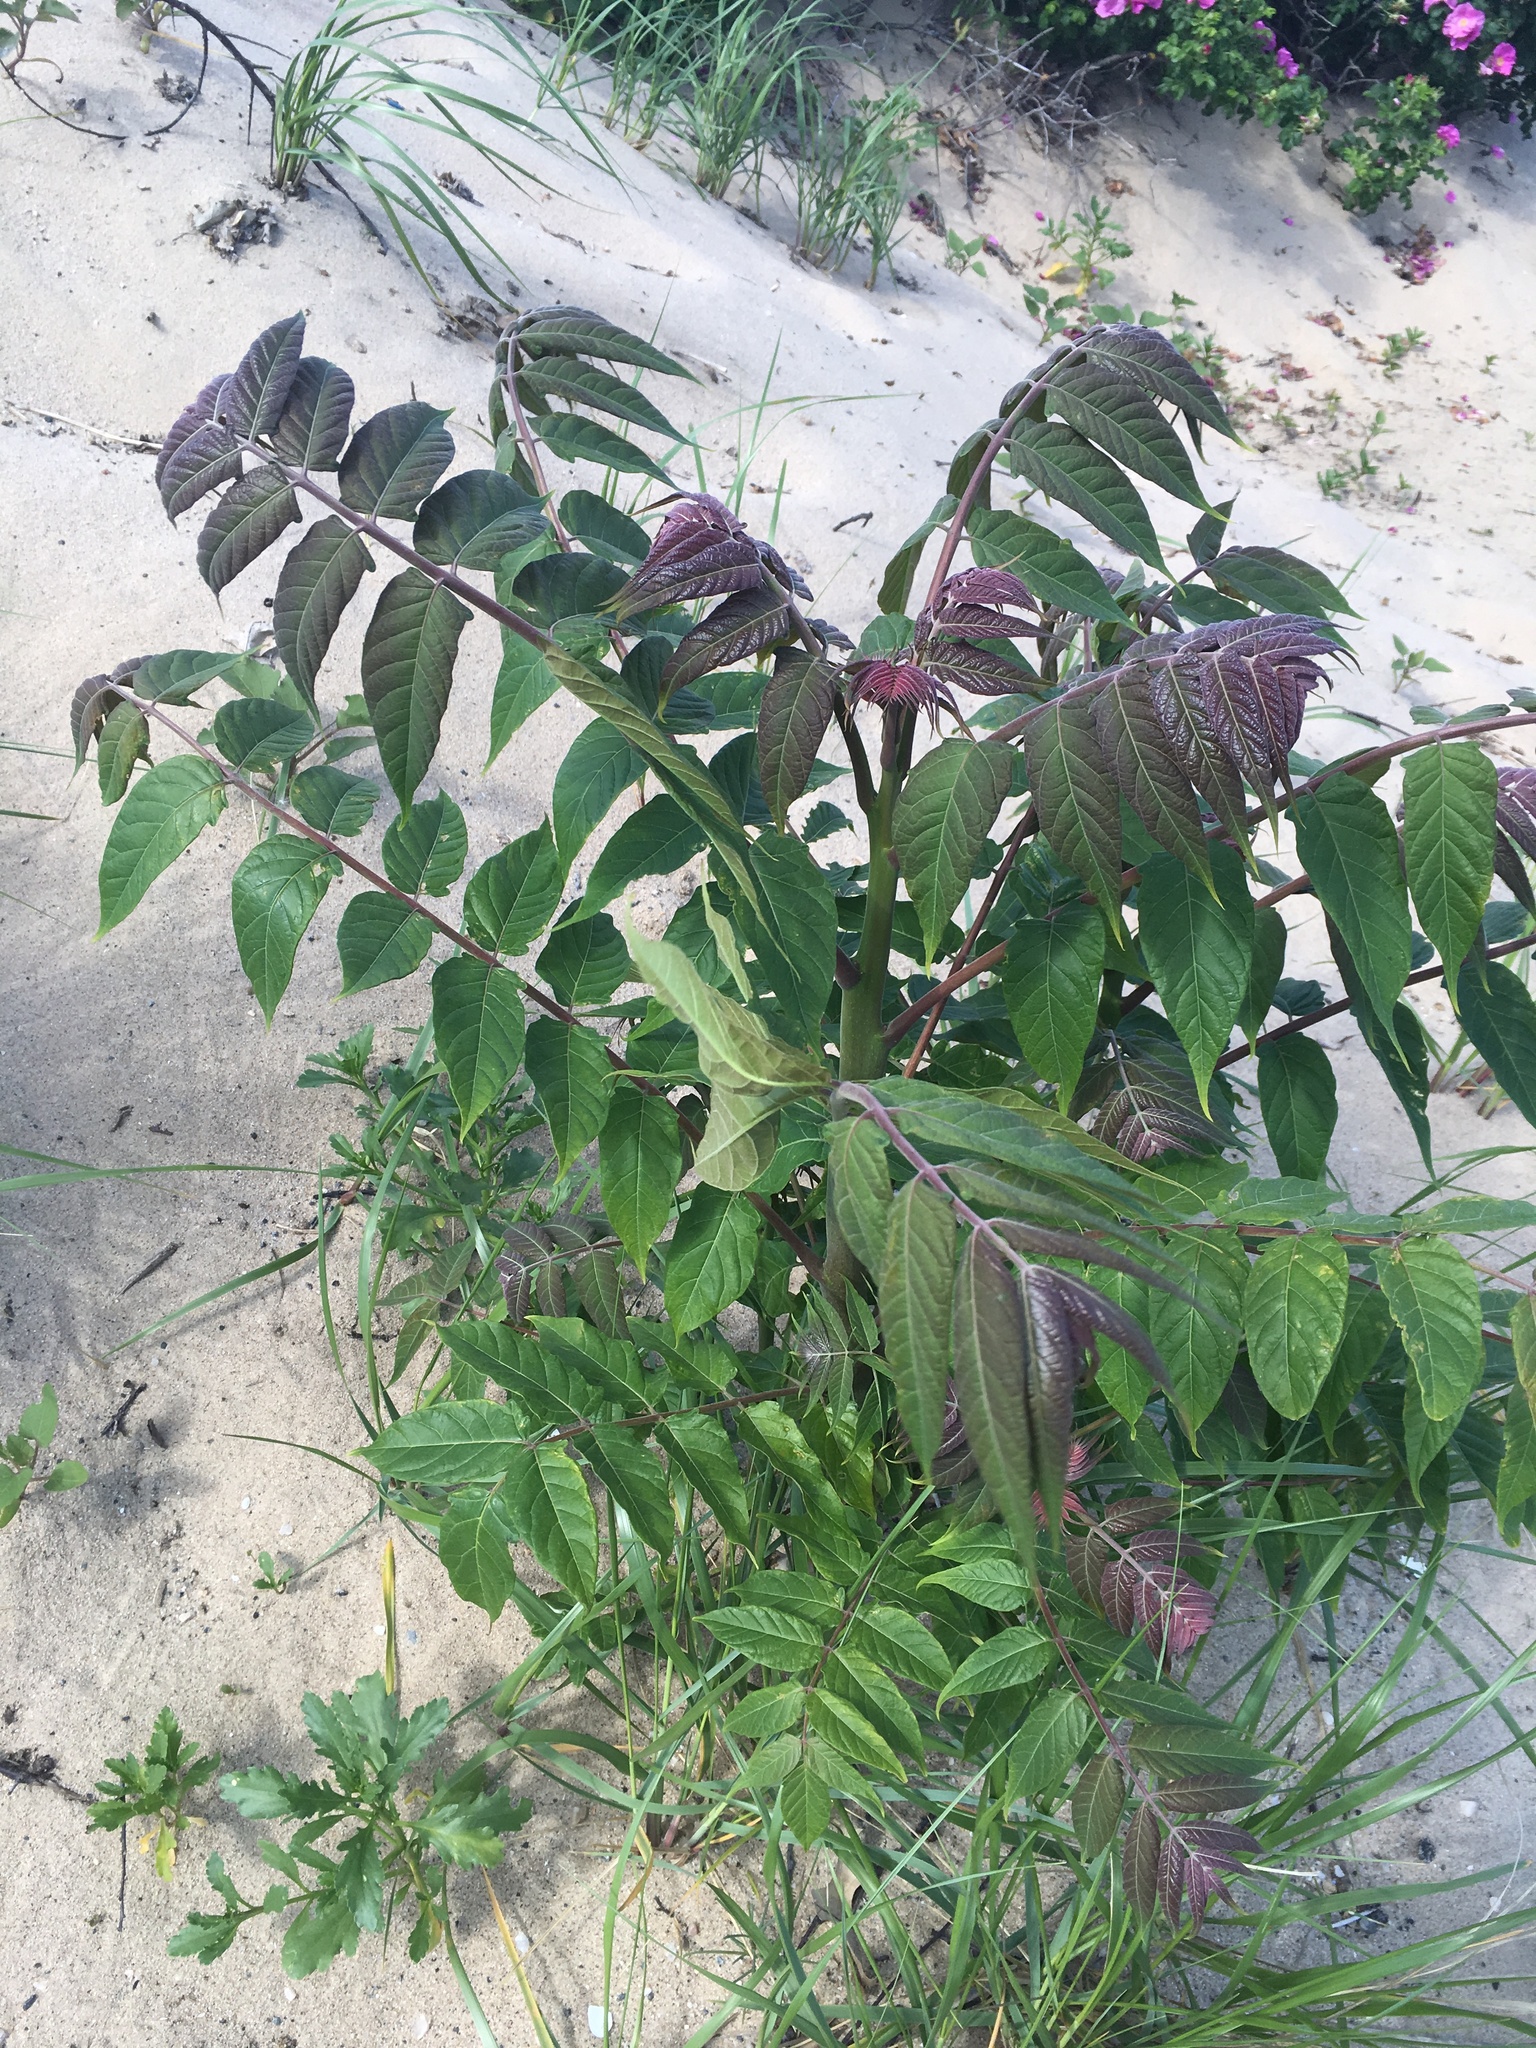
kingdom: Plantae
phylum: Tracheophyta
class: Magnoliopsida
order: Sapindales
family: Simaroubaceae
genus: Ailanthus
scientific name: Ailanthus altissima
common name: Tree-of-heaven
